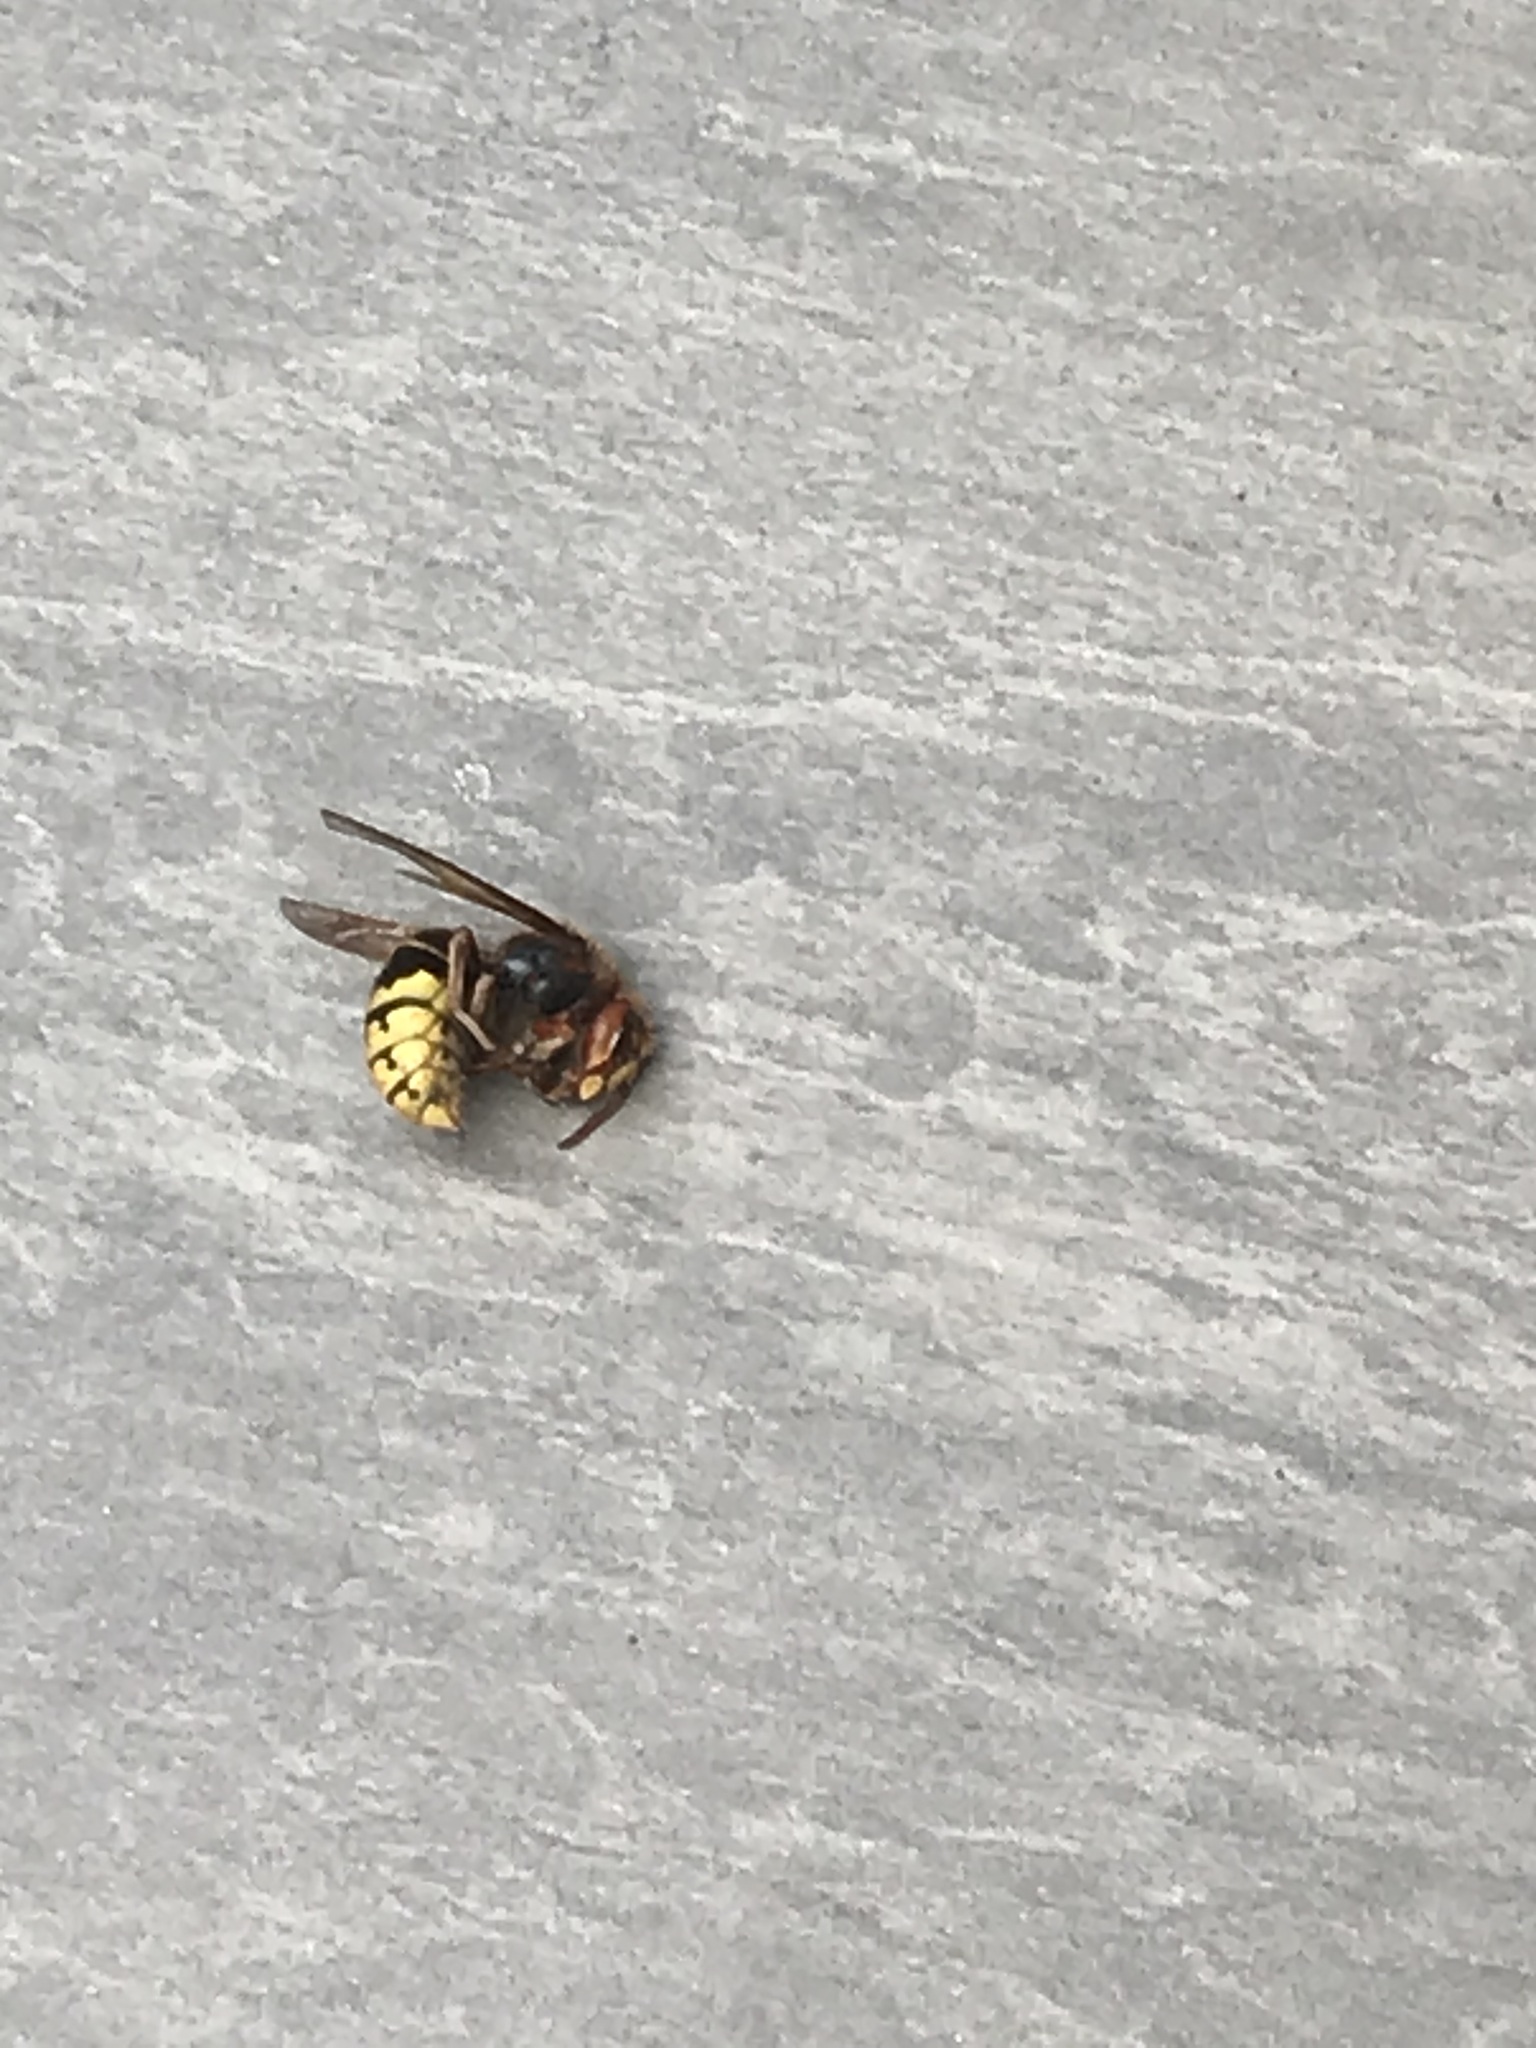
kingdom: Animalia
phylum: Arthropoda
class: Insecta
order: Hymenoptera
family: Vespidae
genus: Vespa
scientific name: Vespa crabro
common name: Hornet
